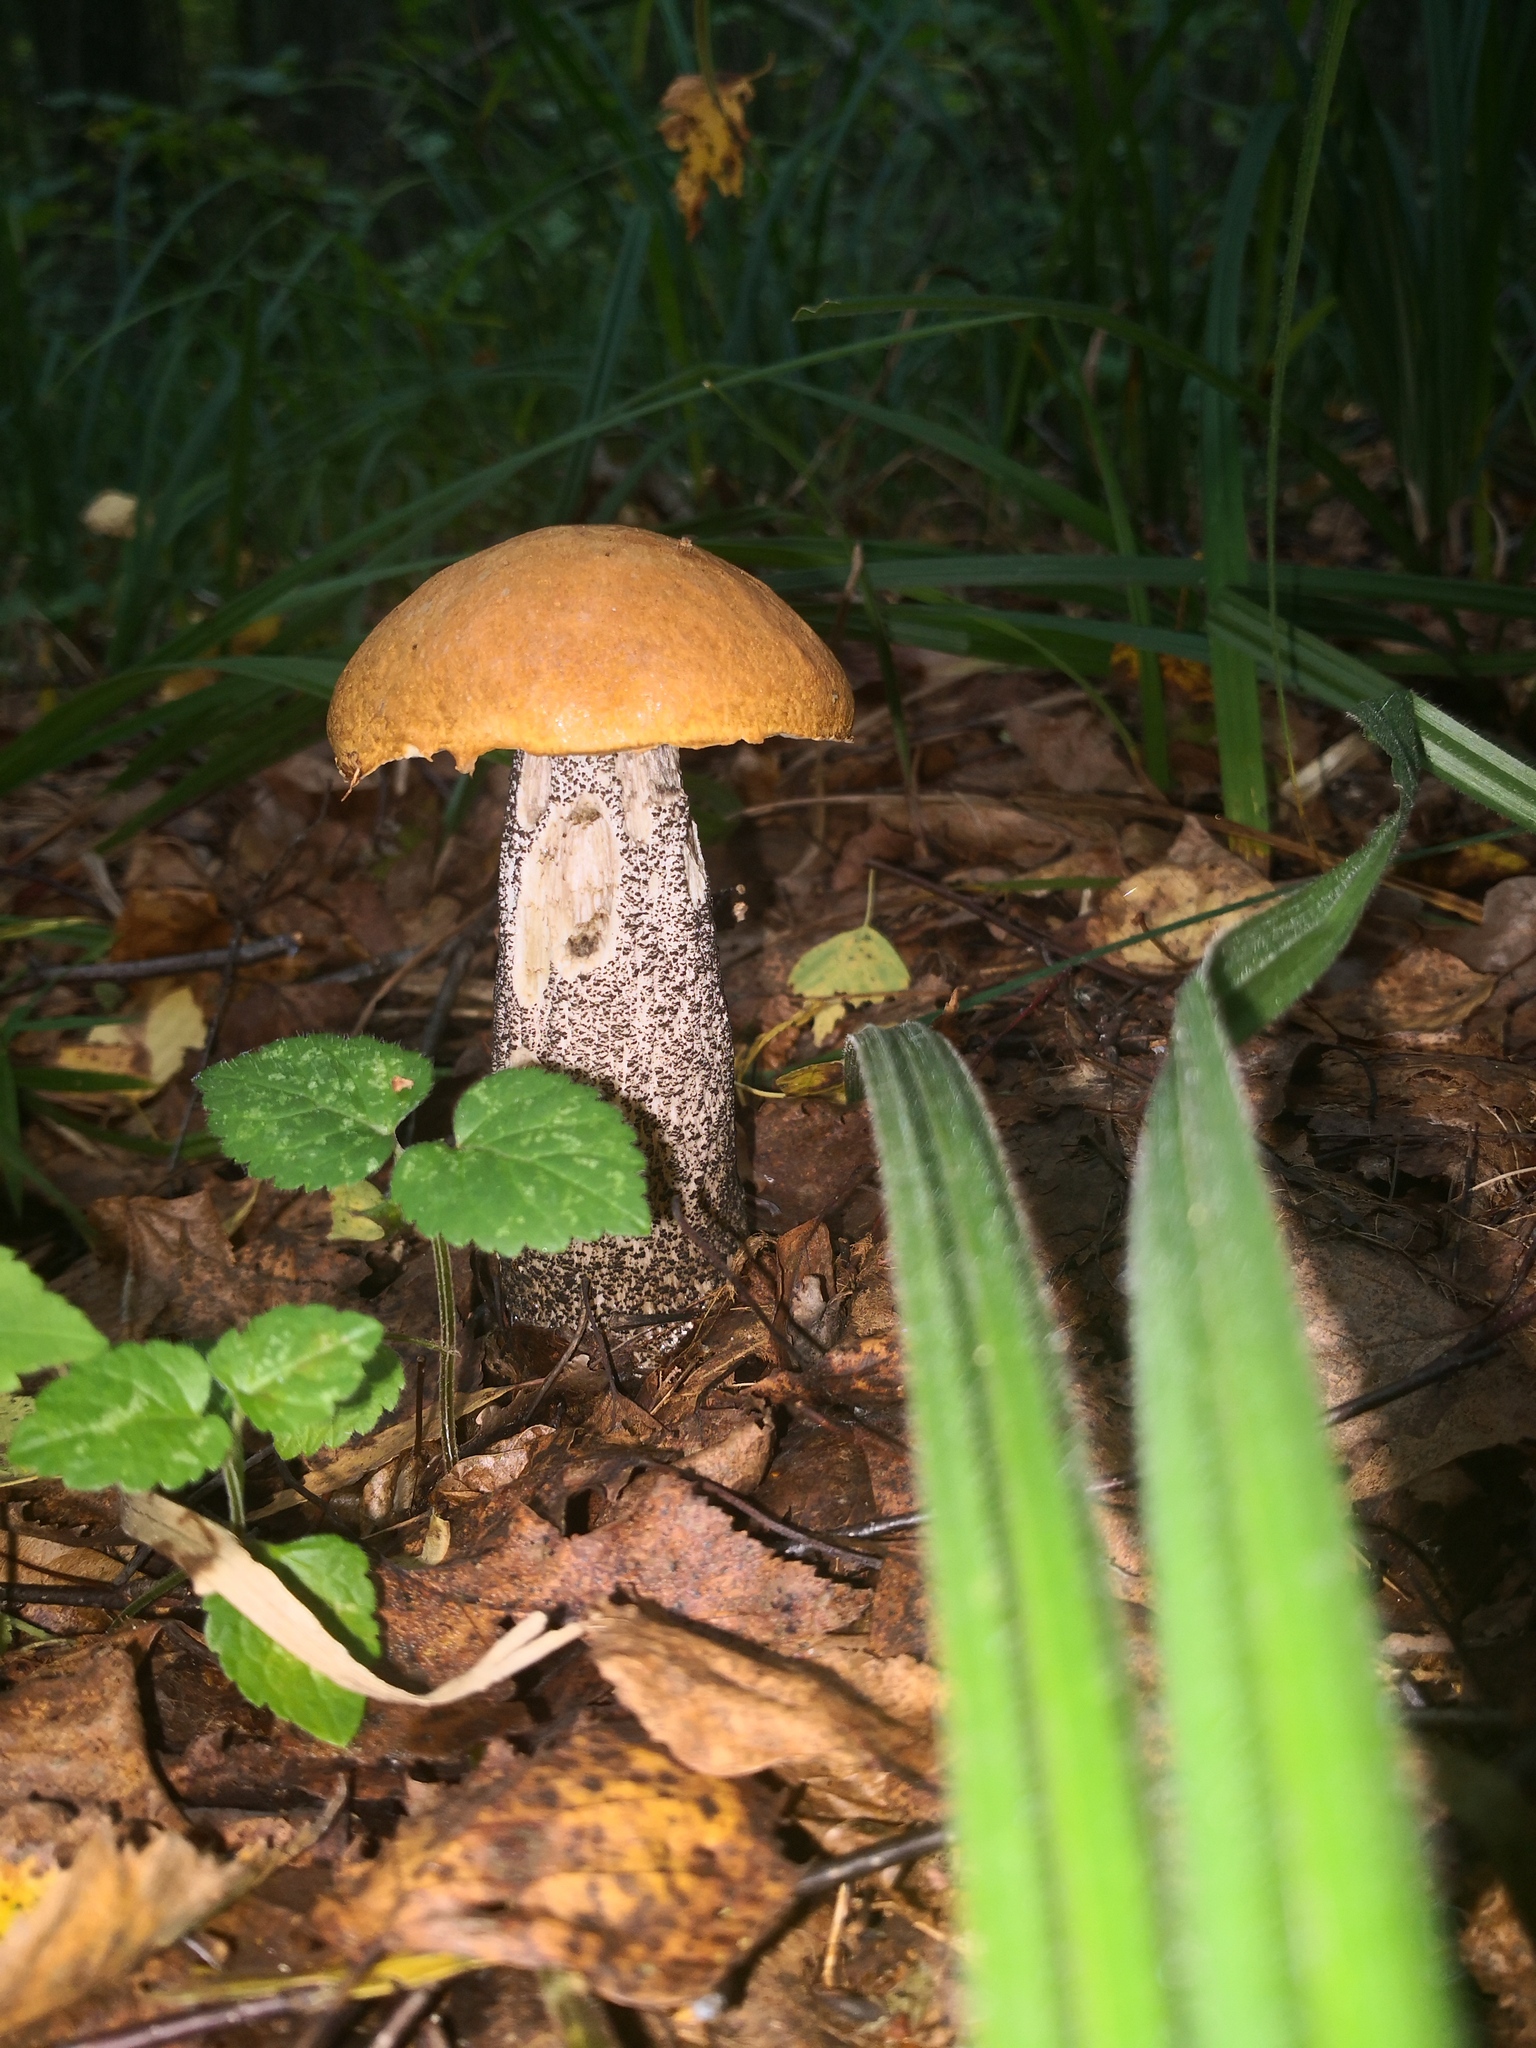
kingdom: Fungi
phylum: Basidiomycota
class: Agaricomycetes
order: Boletales
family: Boletaceae
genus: Leccinum
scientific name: Leccinum versipelle
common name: Orange birch bolete
